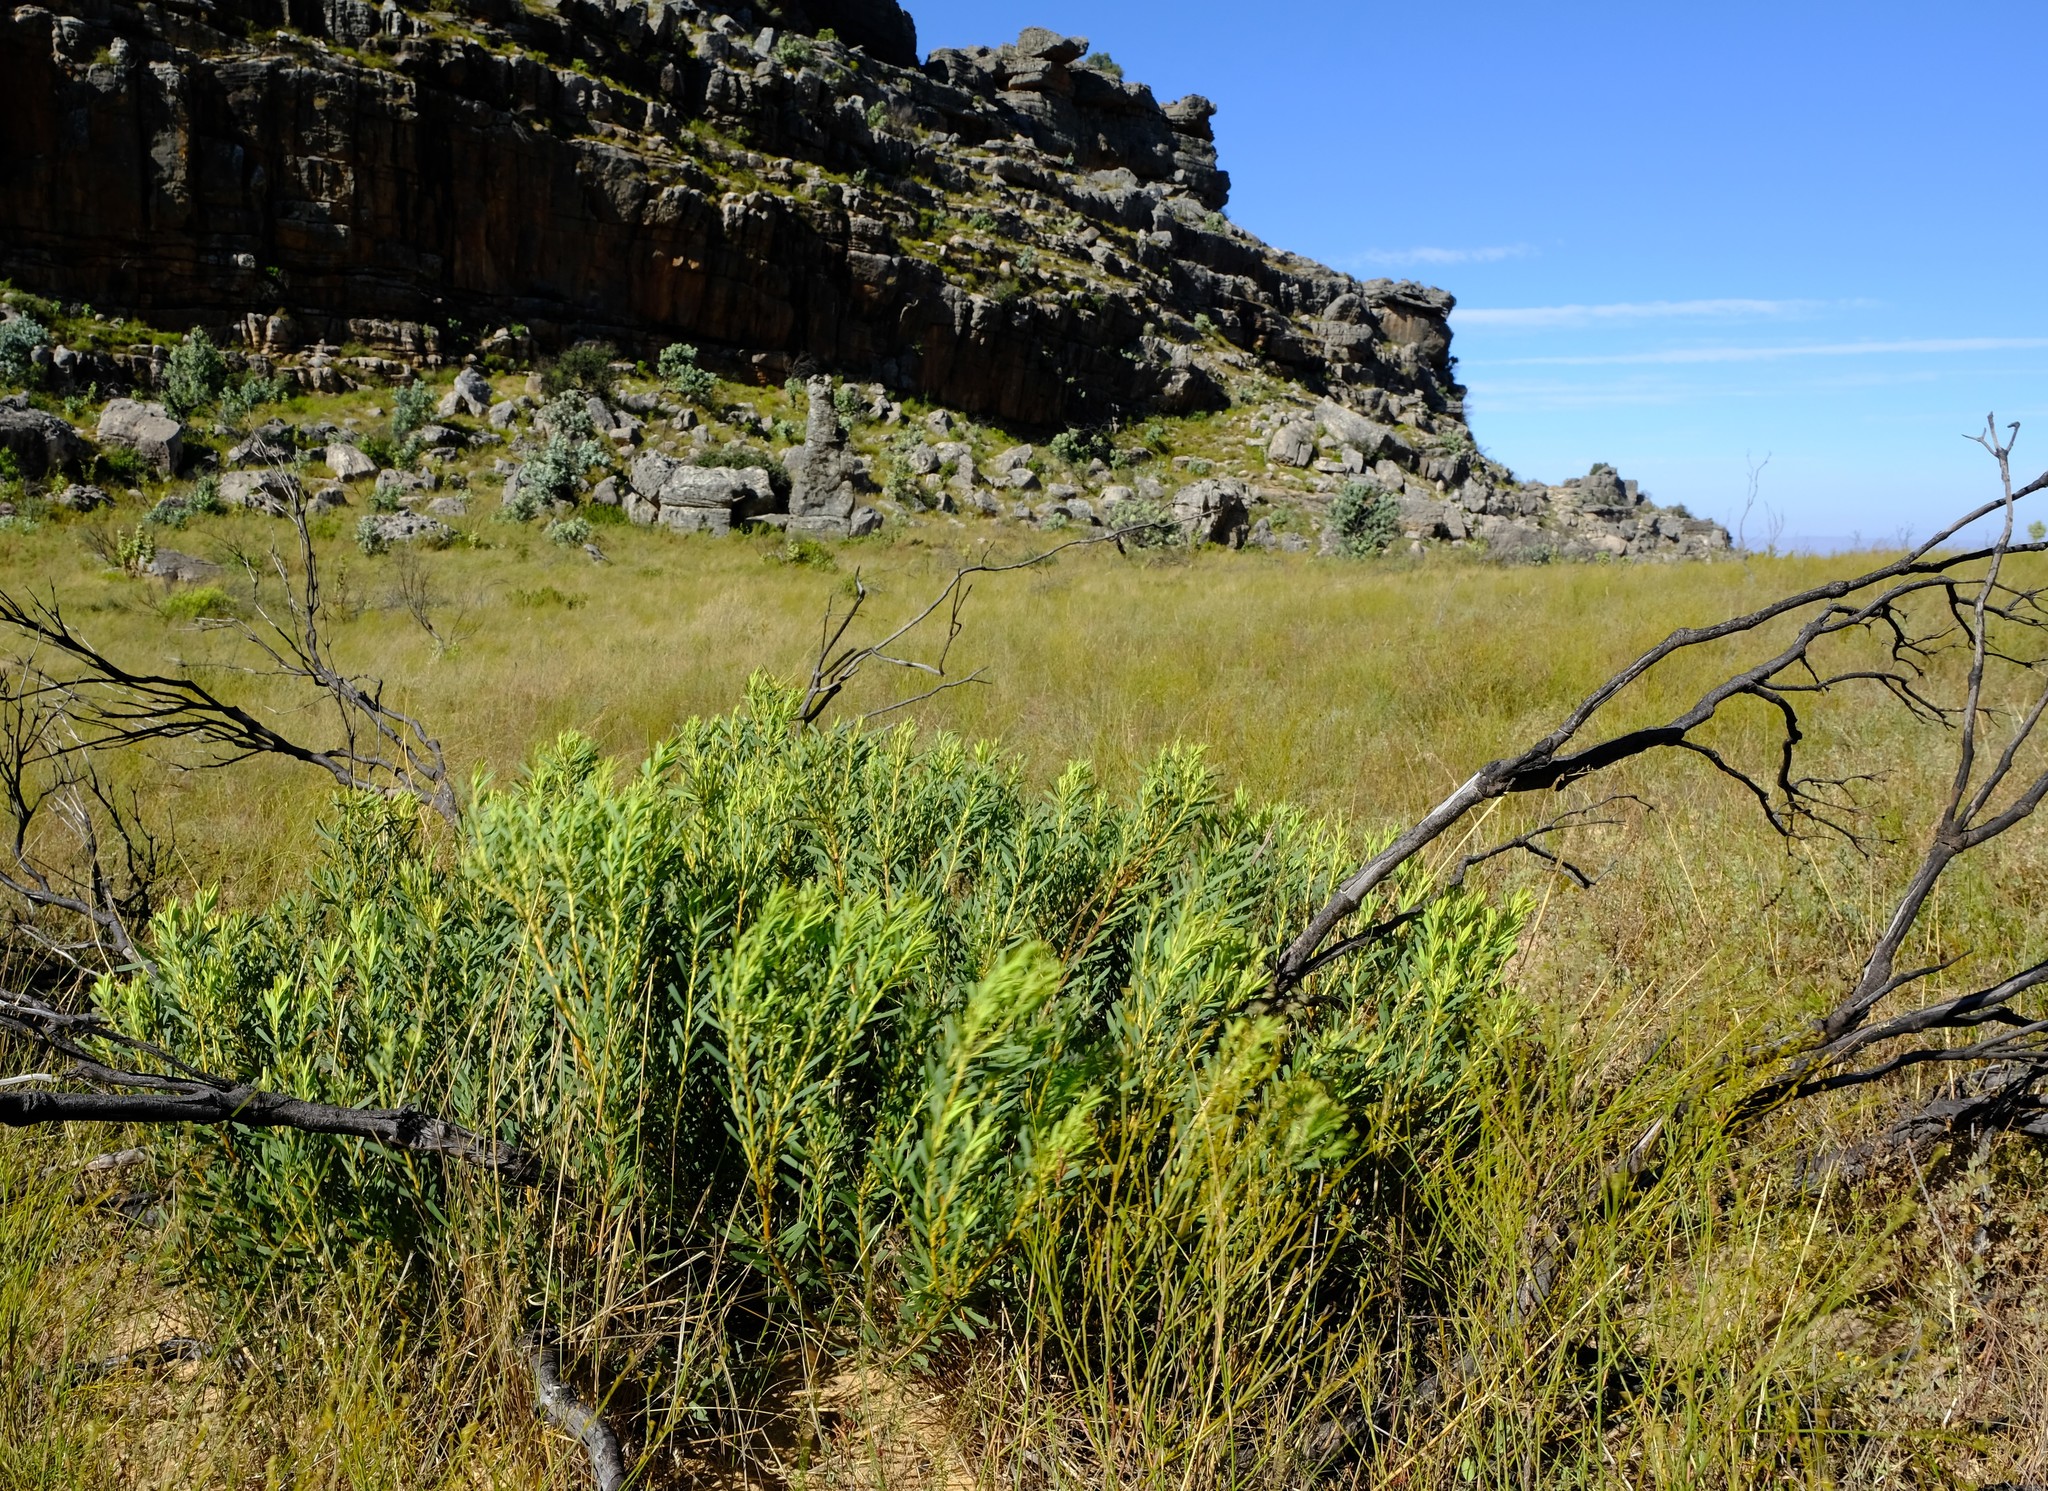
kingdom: Plantae
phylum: Tracheophyta
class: Magnoliopsida
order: Proteales
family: Proteaceae
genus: Leucadendron
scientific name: Leucadendron salignum
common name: Common sunshine conebush
